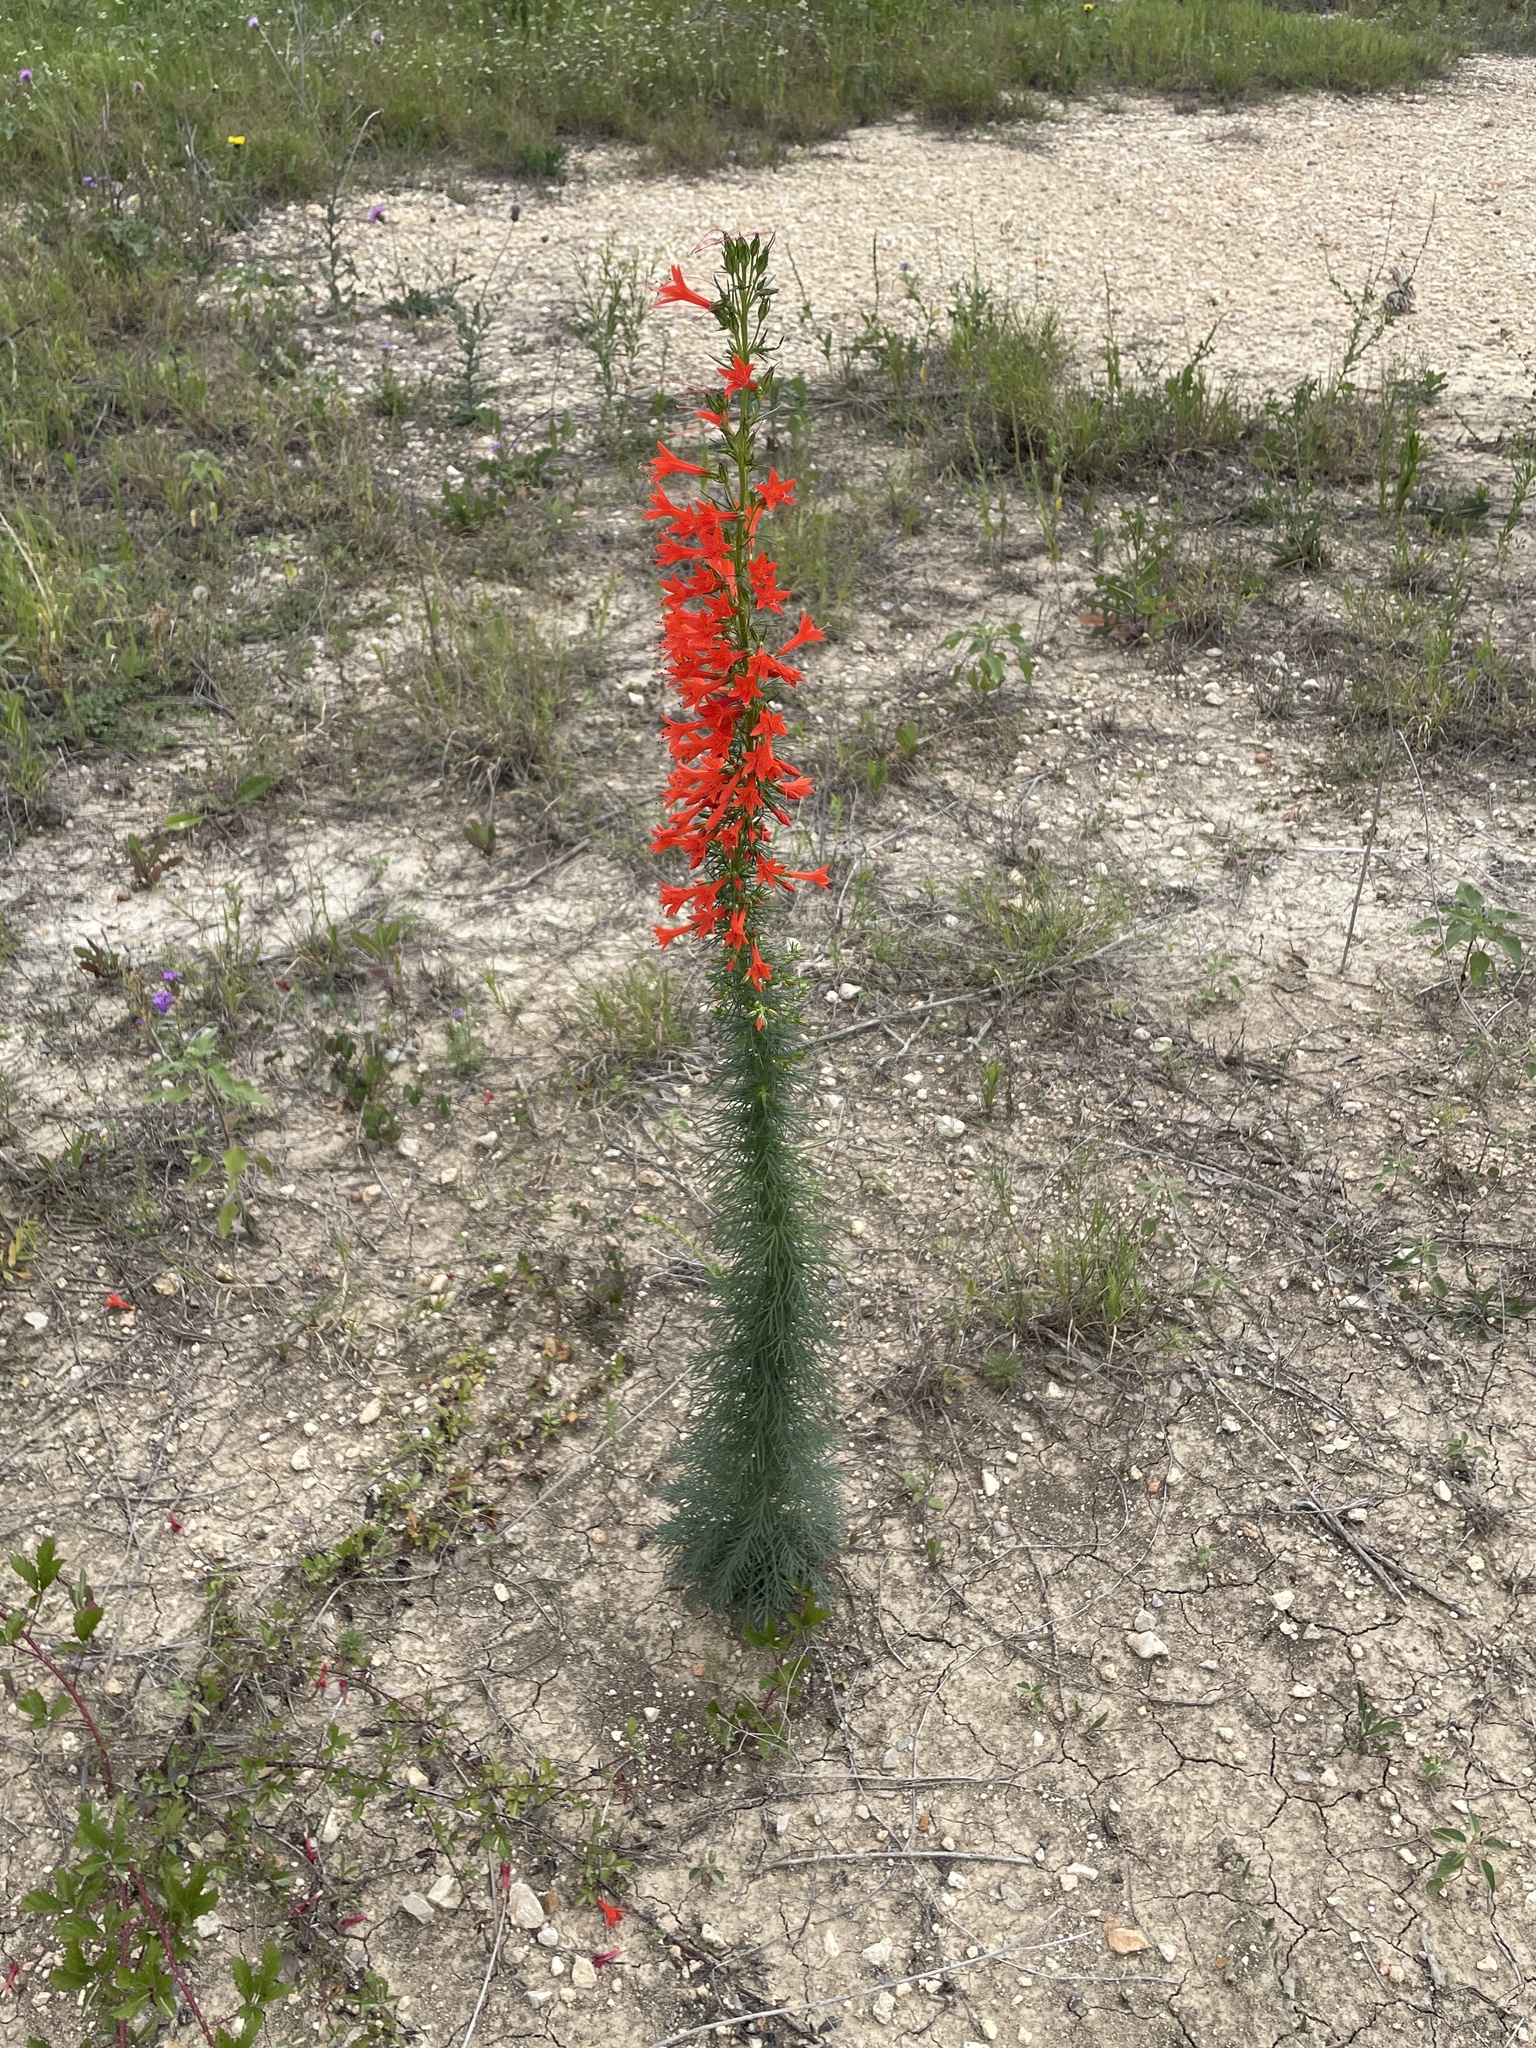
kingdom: Plantae
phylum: Tracheophyta
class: Magnoliopsida
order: Ericales
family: Polemoniaceae
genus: Ipomopsis
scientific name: Ipomopsis rubra
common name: Skyrocket
